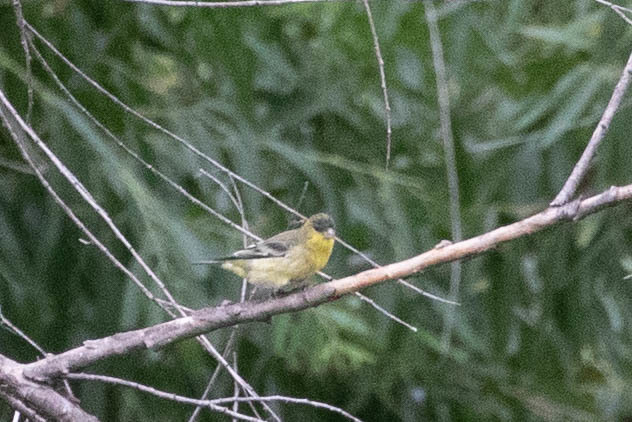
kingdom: Animalia
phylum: Chordata
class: Aves
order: Passeriformes
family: Fringillidae
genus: Spinus
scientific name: Spinus psaltria
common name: Lesser goldfinch
